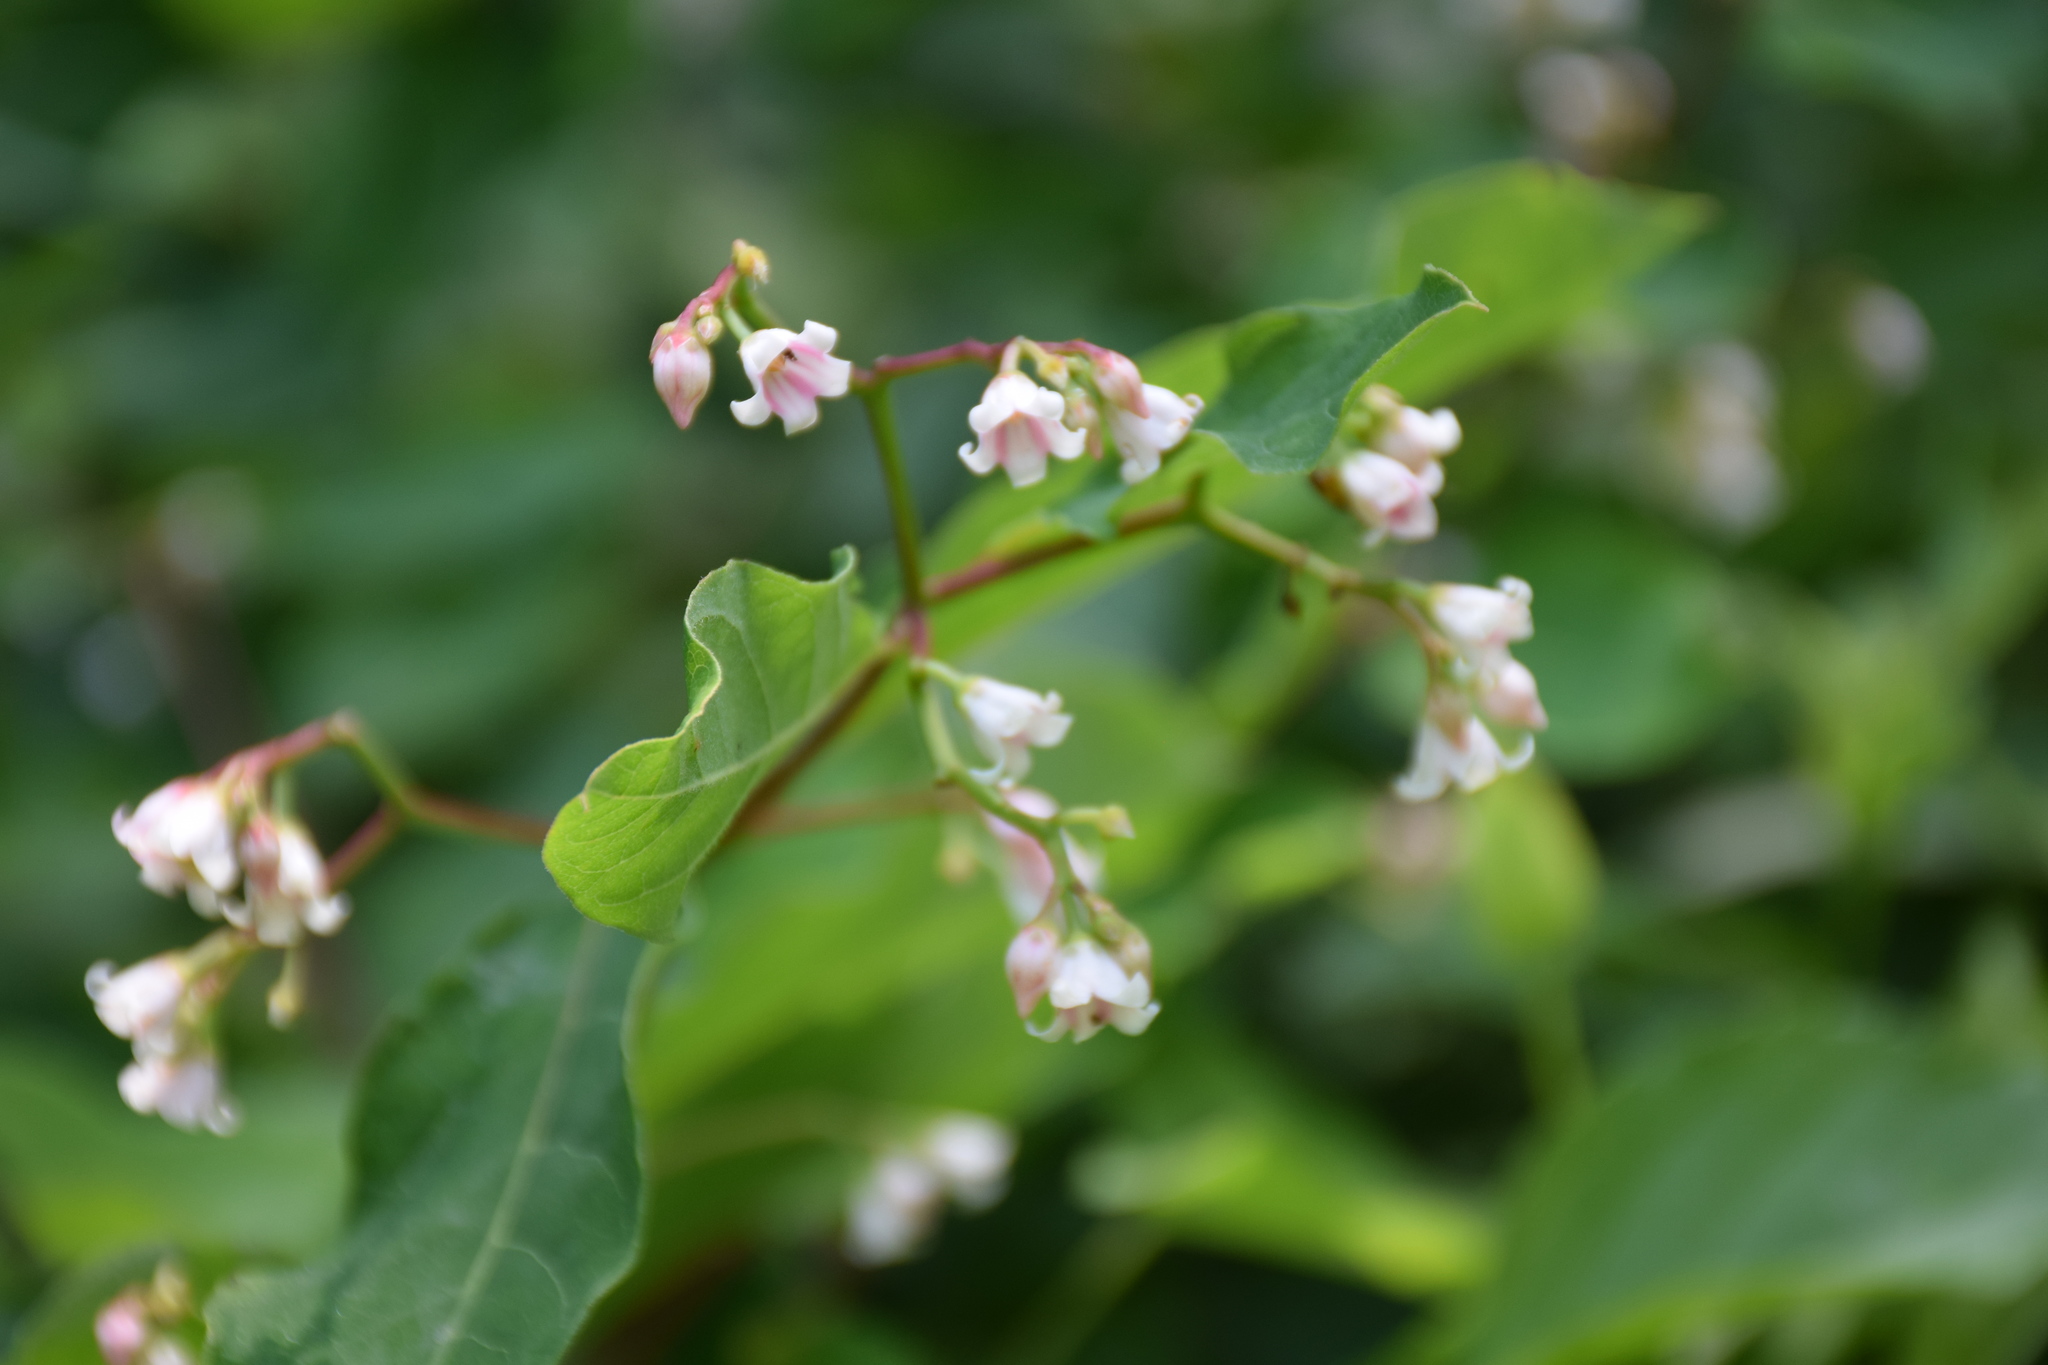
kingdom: Plantae
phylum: Tracheophyta
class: Magnoliopsida
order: Gentianales
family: Apocynaceae
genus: Apocynum
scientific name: Apocynum androsaemifolium
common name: Spreading dogbane
